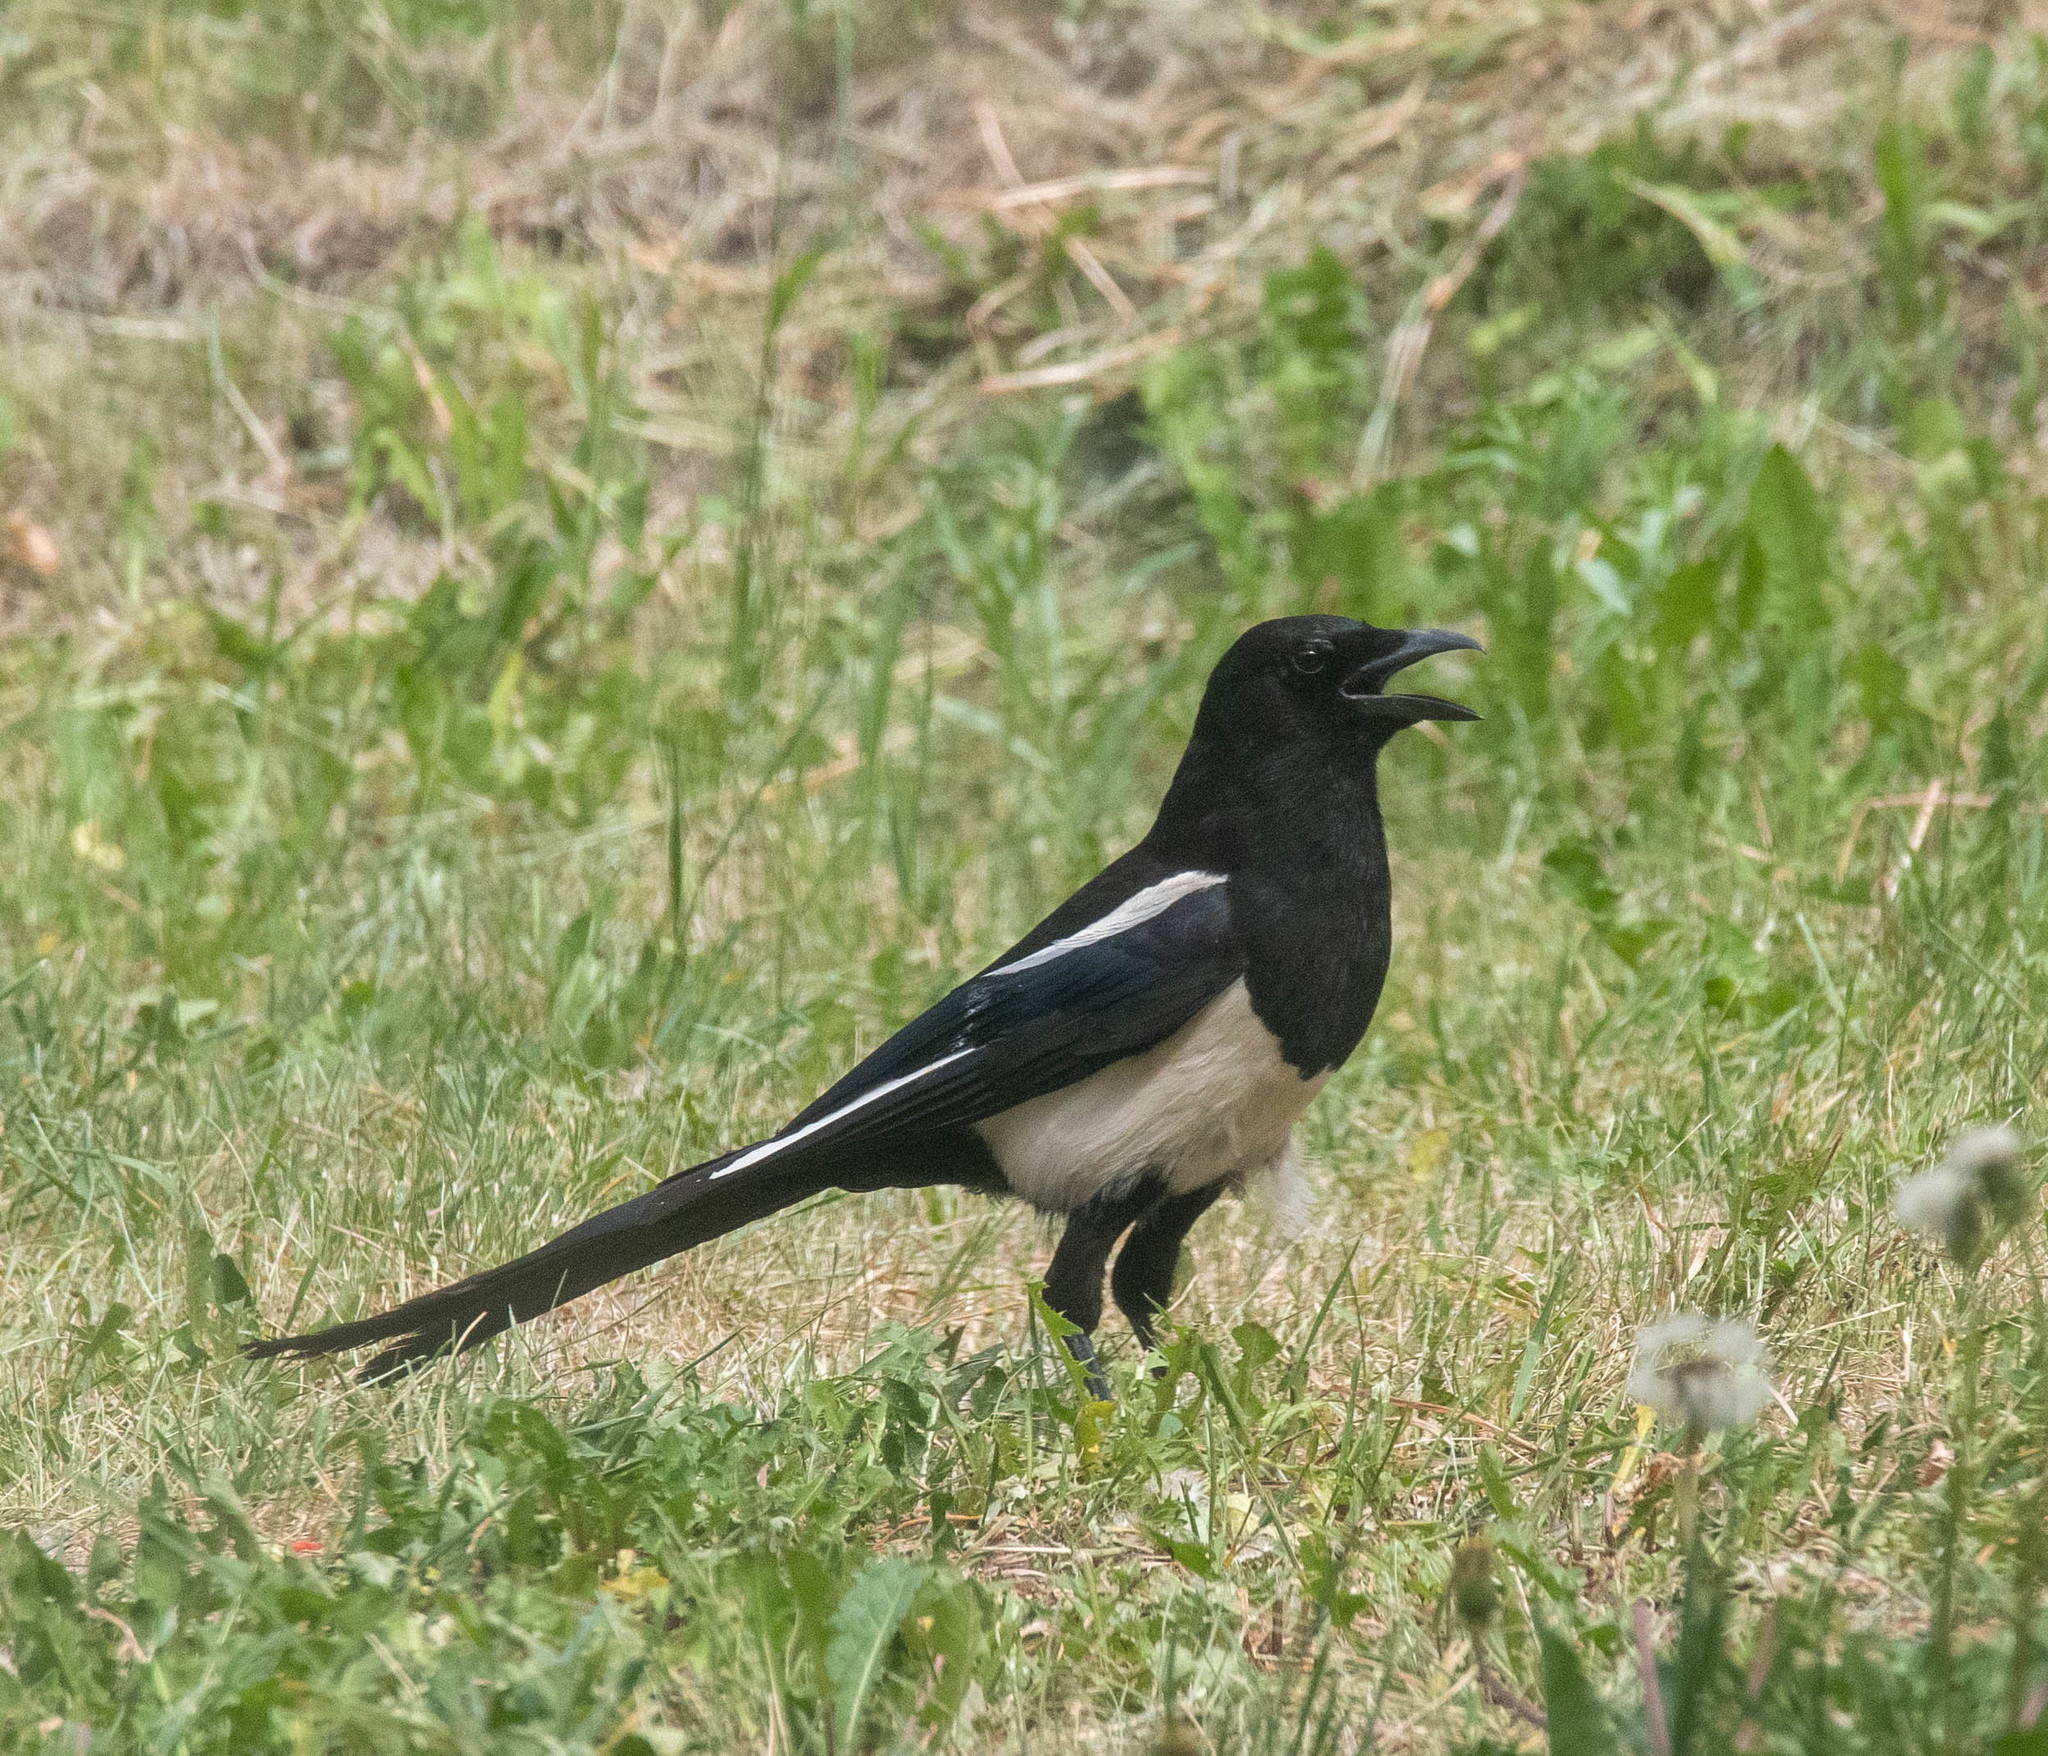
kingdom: Animalia
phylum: Chordata
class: Aves
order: Passeriformes
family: Corvidae
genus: Pica
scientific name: Pica hudsonia
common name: Black-billed magpie
